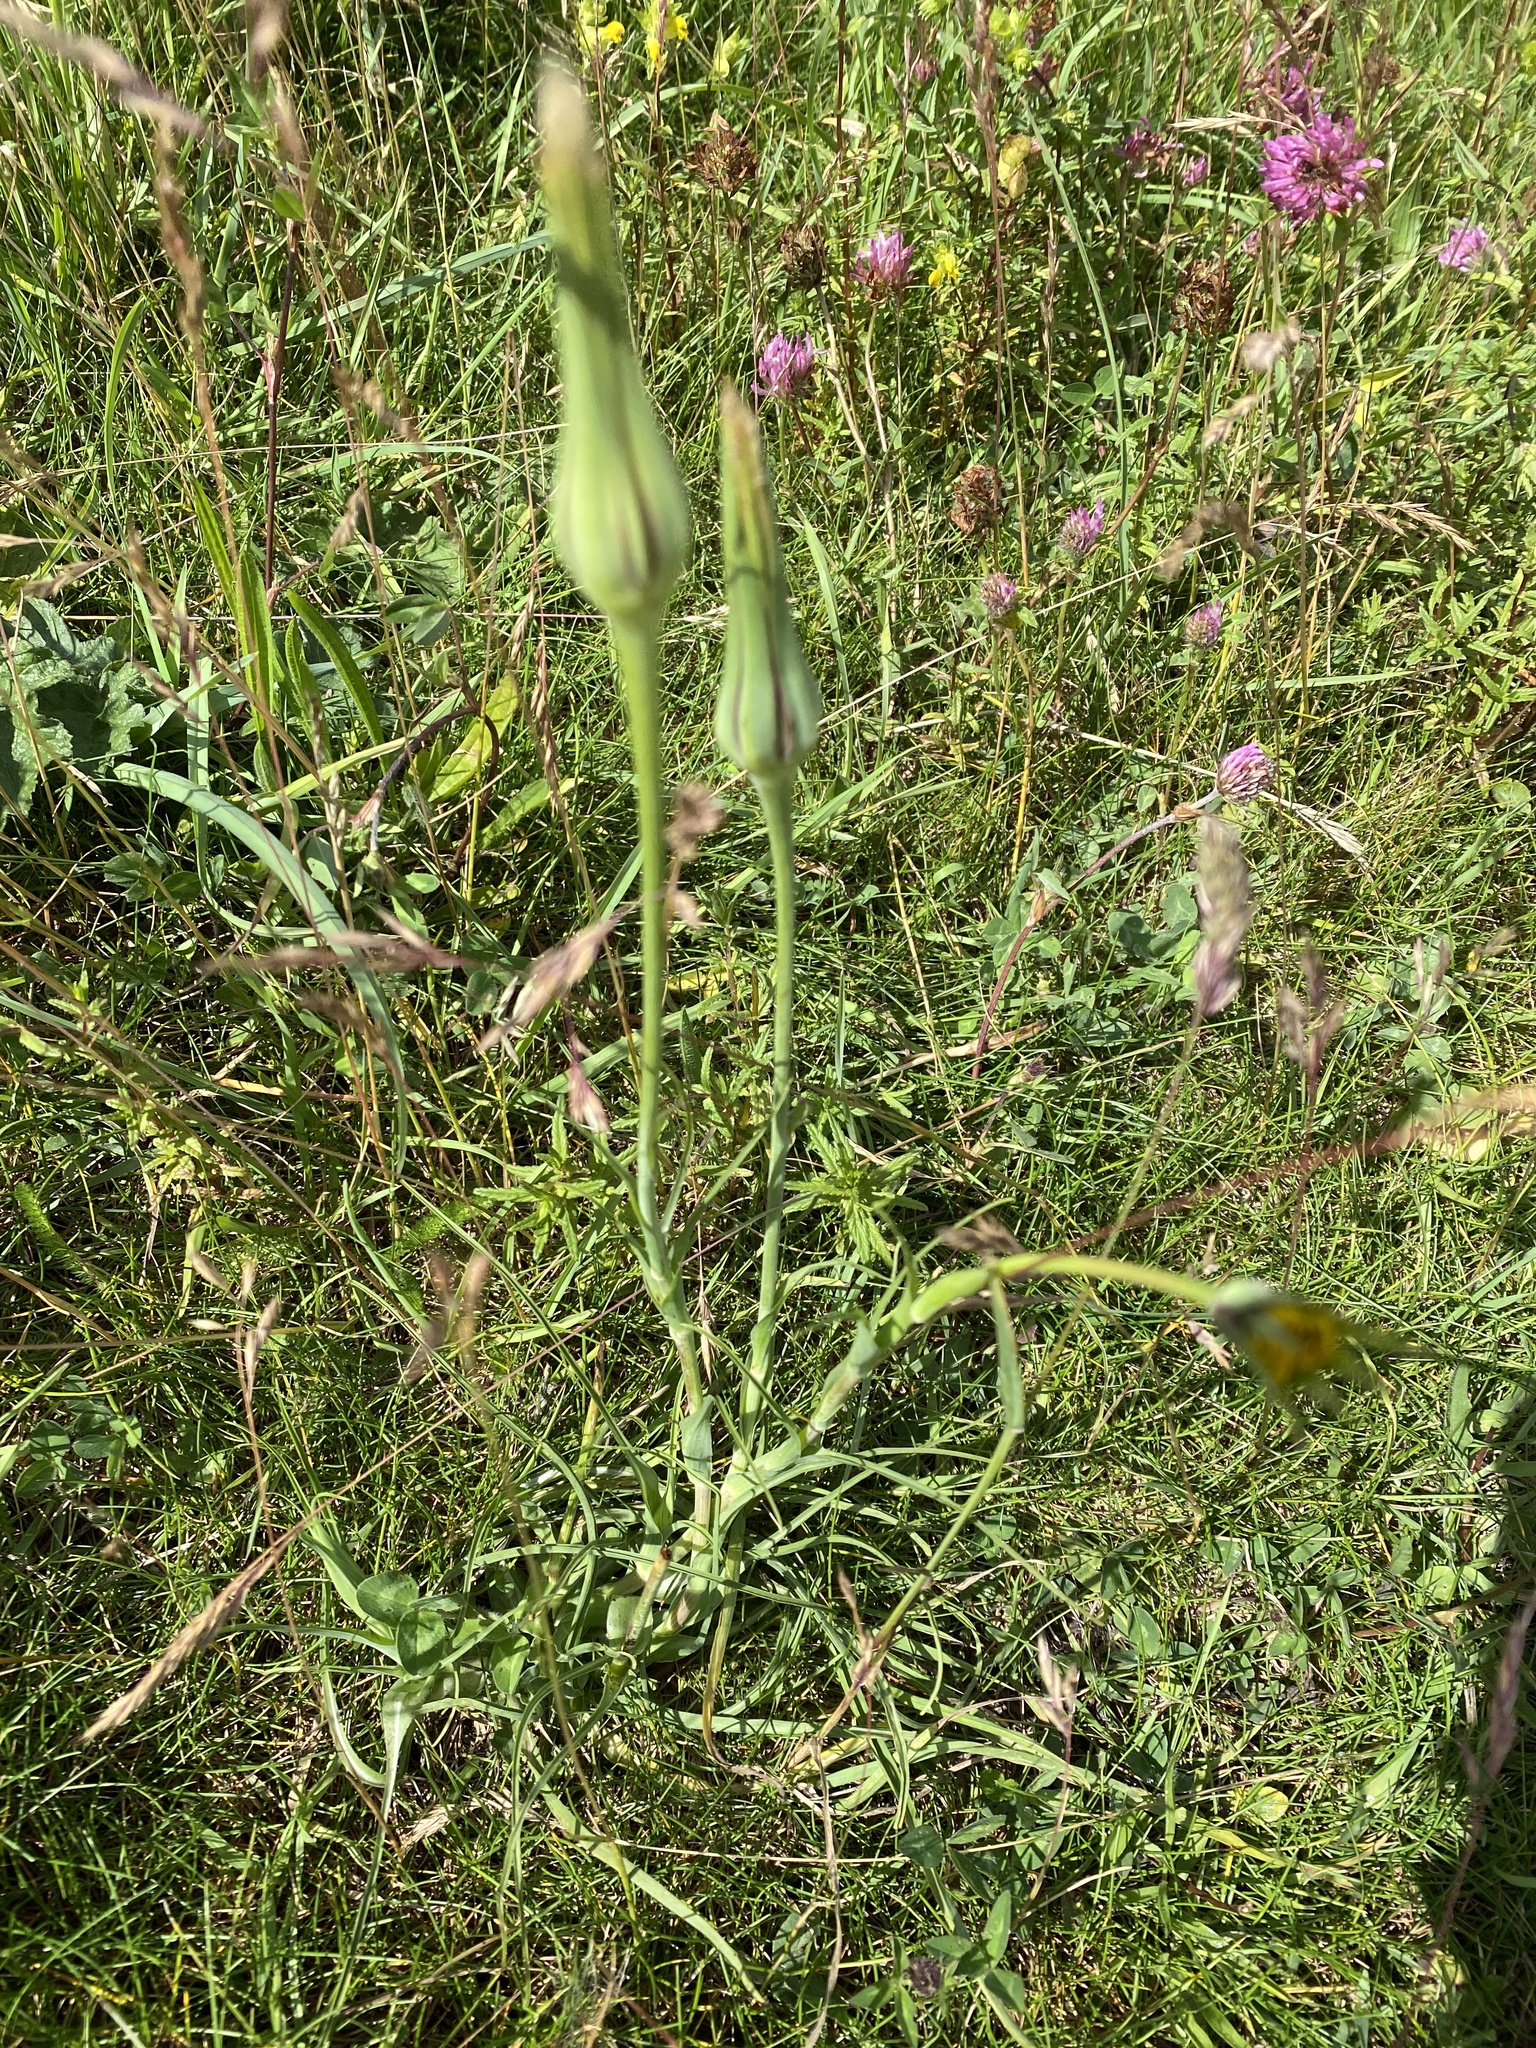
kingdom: Plantae
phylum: Tracheophyta
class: Magnoliopsida
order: Asterales
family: Asteraceae
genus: Tragopogon
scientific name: Tragopogon pratensis
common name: Goat's-beard
